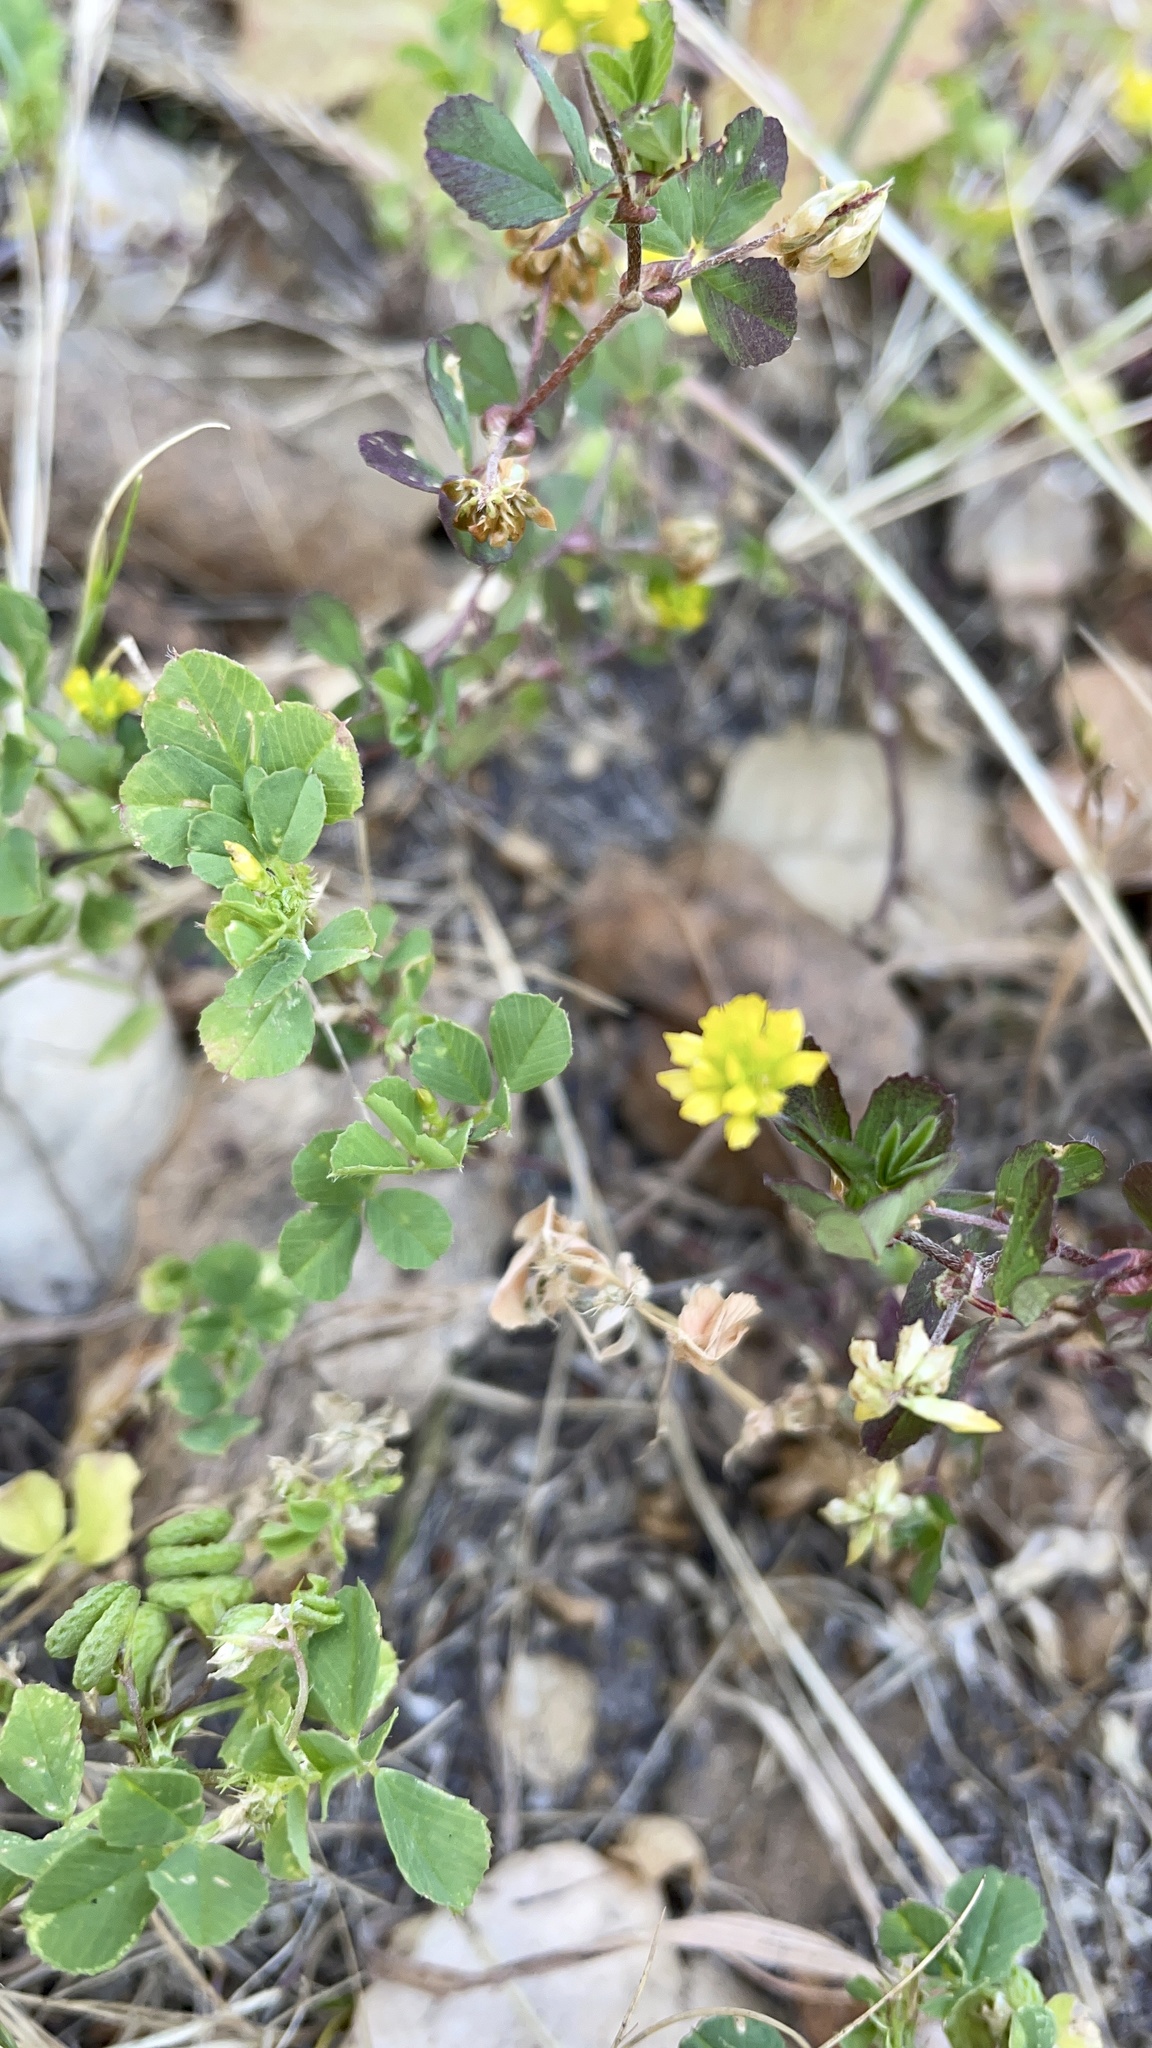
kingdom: Plantae
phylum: Tracheophyta
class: Magnoliopsida
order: Fabales
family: Fabaceae
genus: Trifolium
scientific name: Trifolium dubium
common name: Suckling clover
